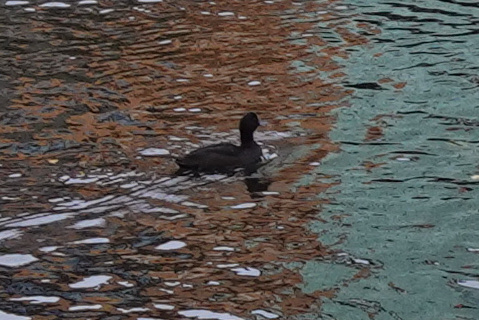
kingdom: Animalia
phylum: Chordata
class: Aves
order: Anseriformes
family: Anatidae
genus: Aythya
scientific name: Aythya novaeseelandiae
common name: New zealand scaup
